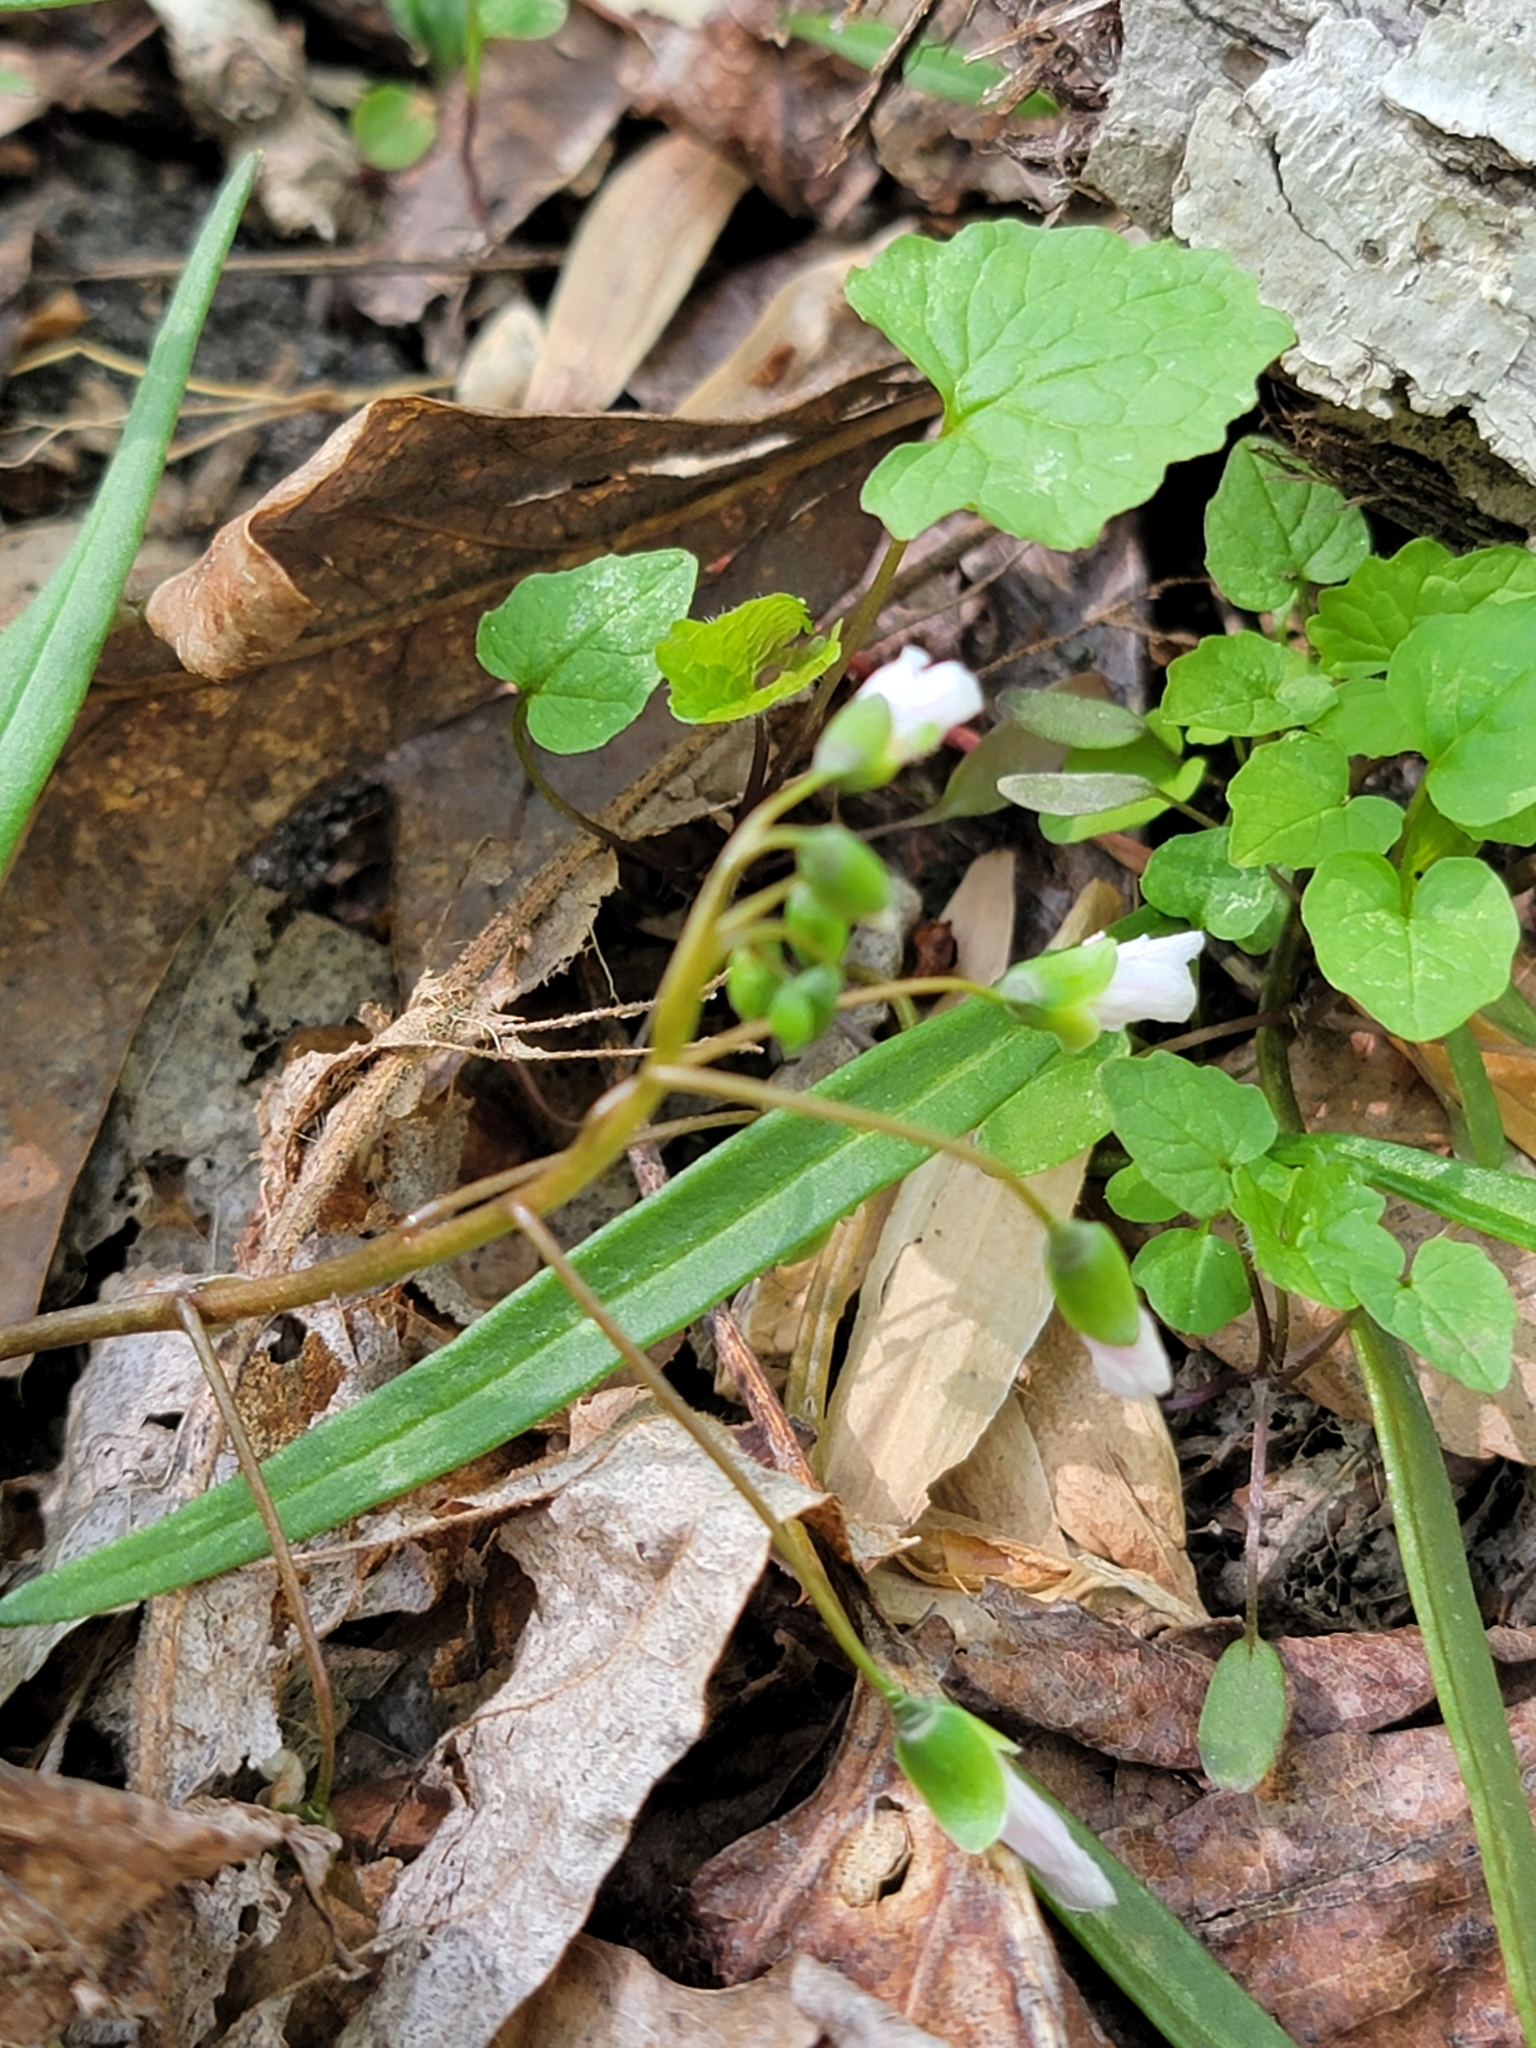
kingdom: Plantae
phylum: Tracheophyta
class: Magnoliopsida
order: Caryophyllales
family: Montiaceae
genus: Claytonia
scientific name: Claytonia virginica
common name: Virginia springbeauty
